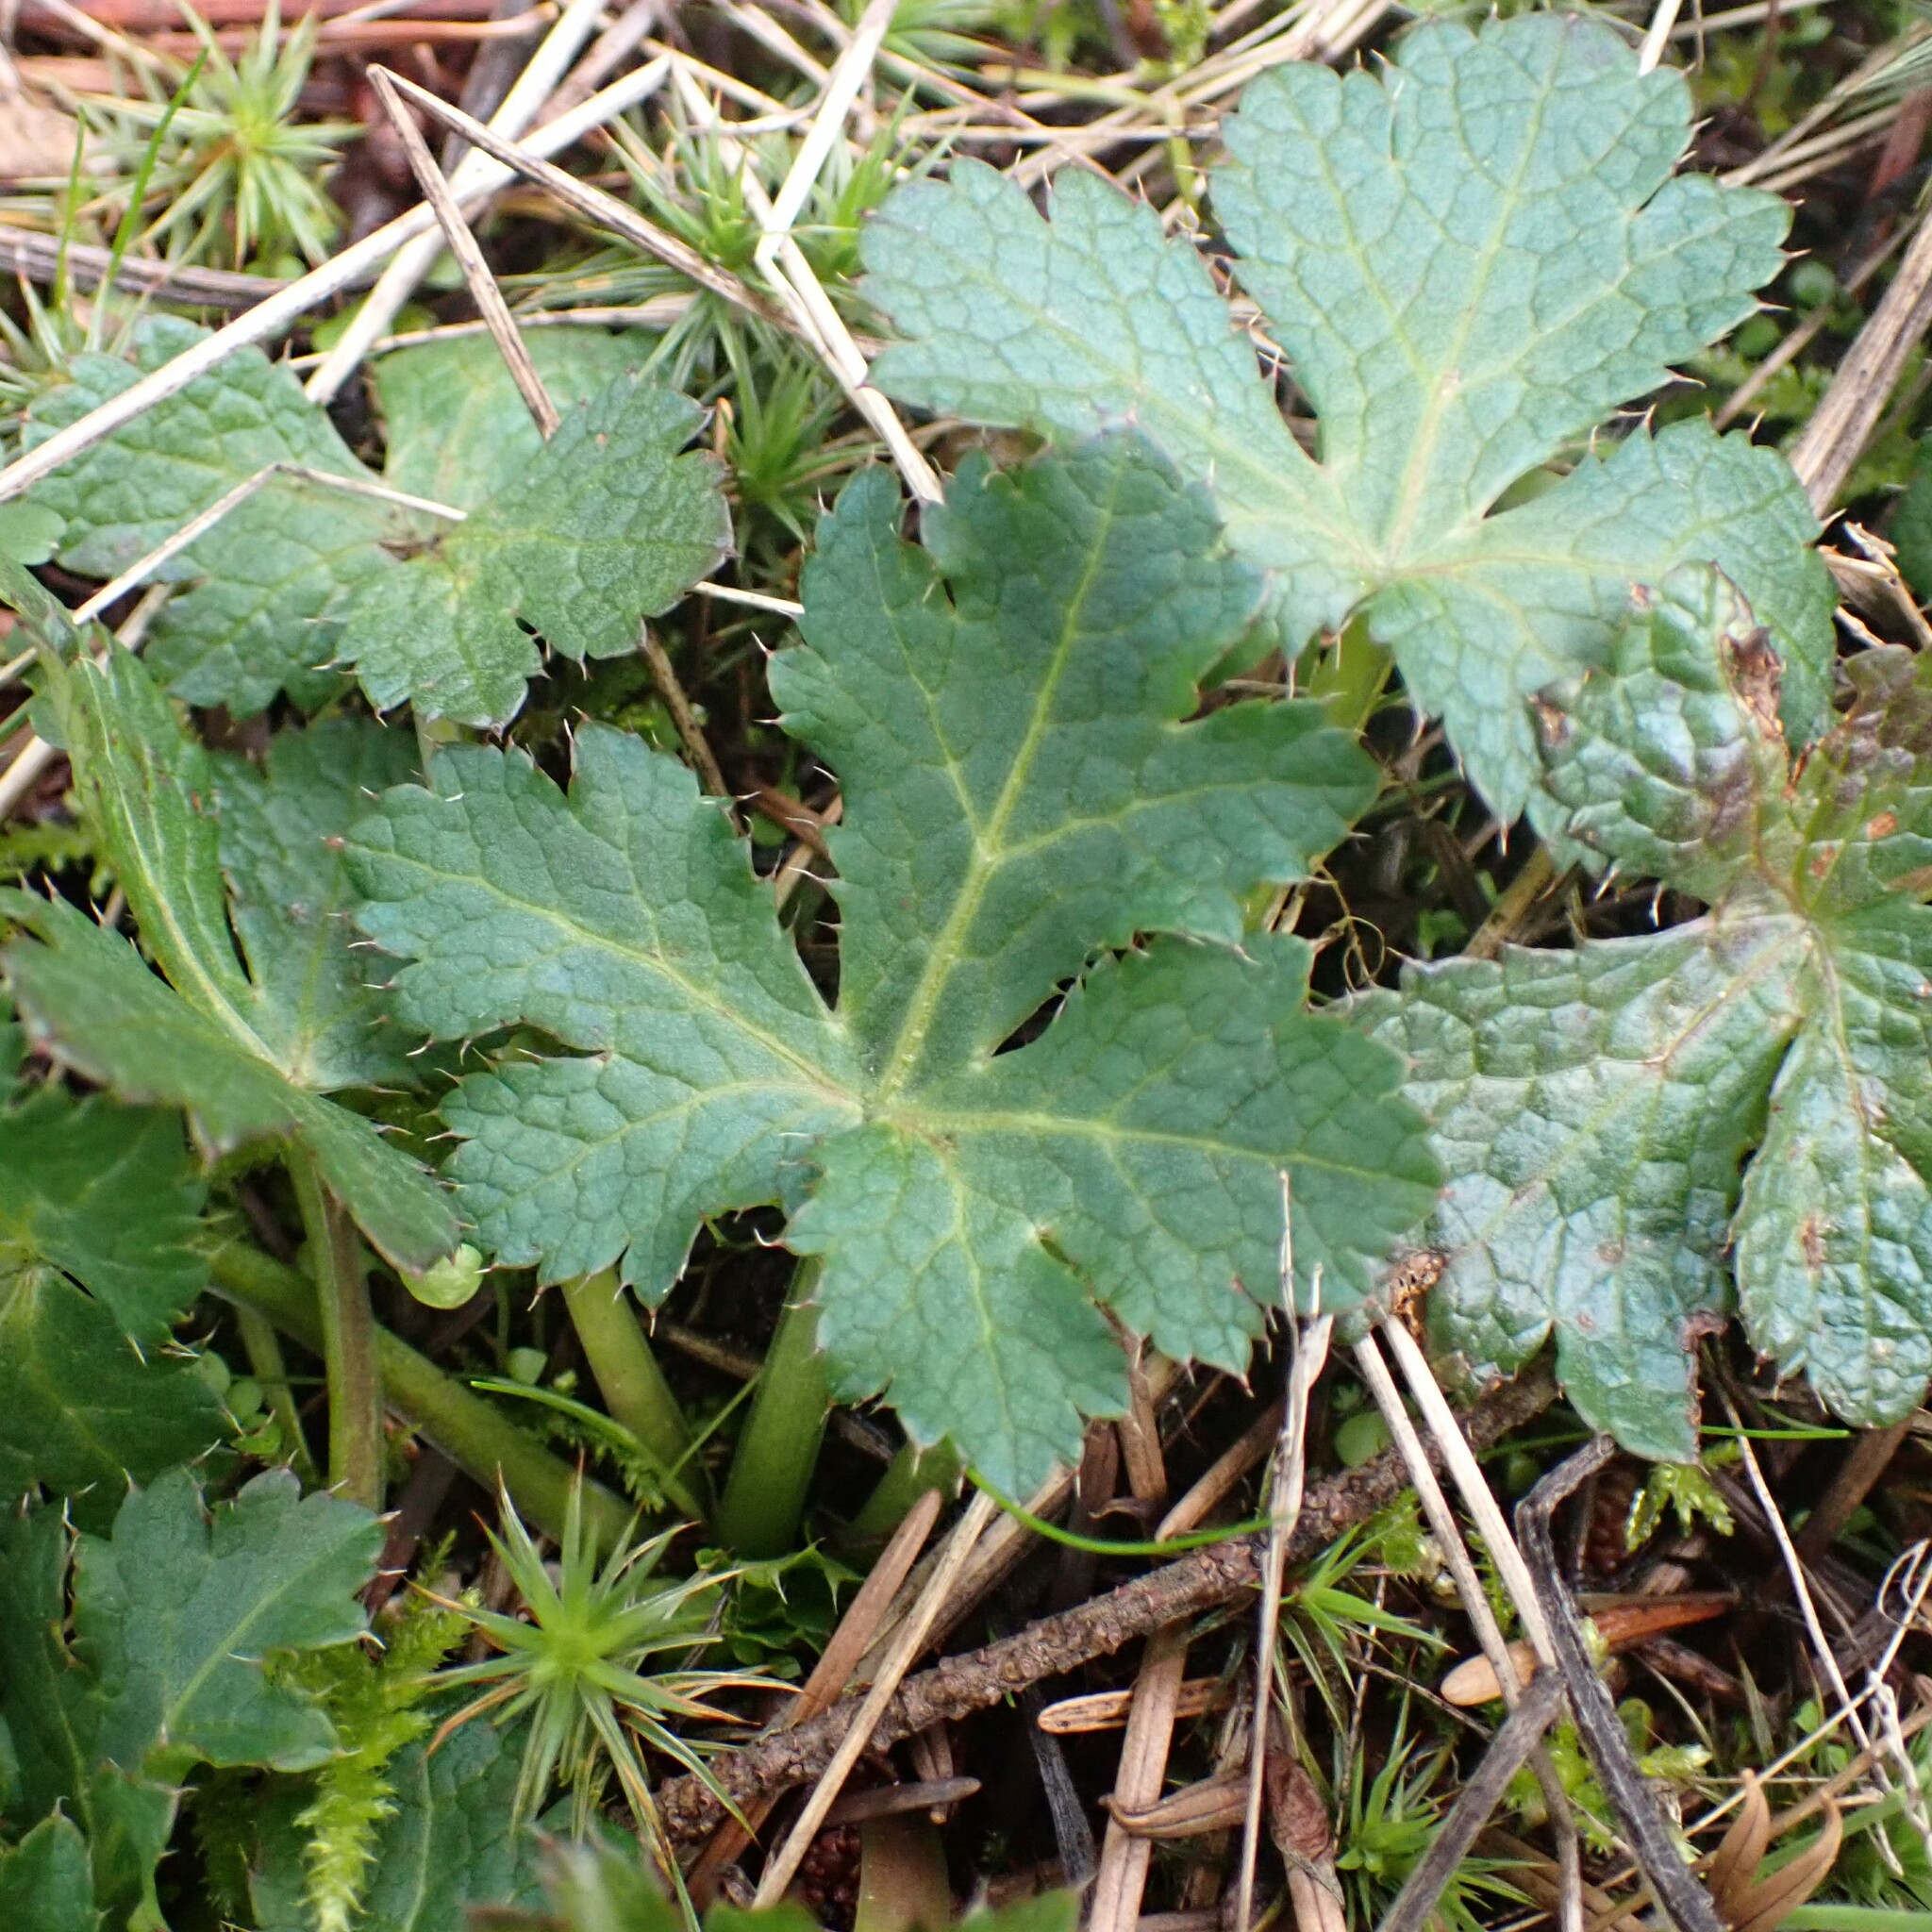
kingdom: Plantae
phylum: Tracheophyta
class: Magnoliopsida
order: Apiales
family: Apiaceae
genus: Sanicula
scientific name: Sanicula crassicaulis
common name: Western snakeroot
